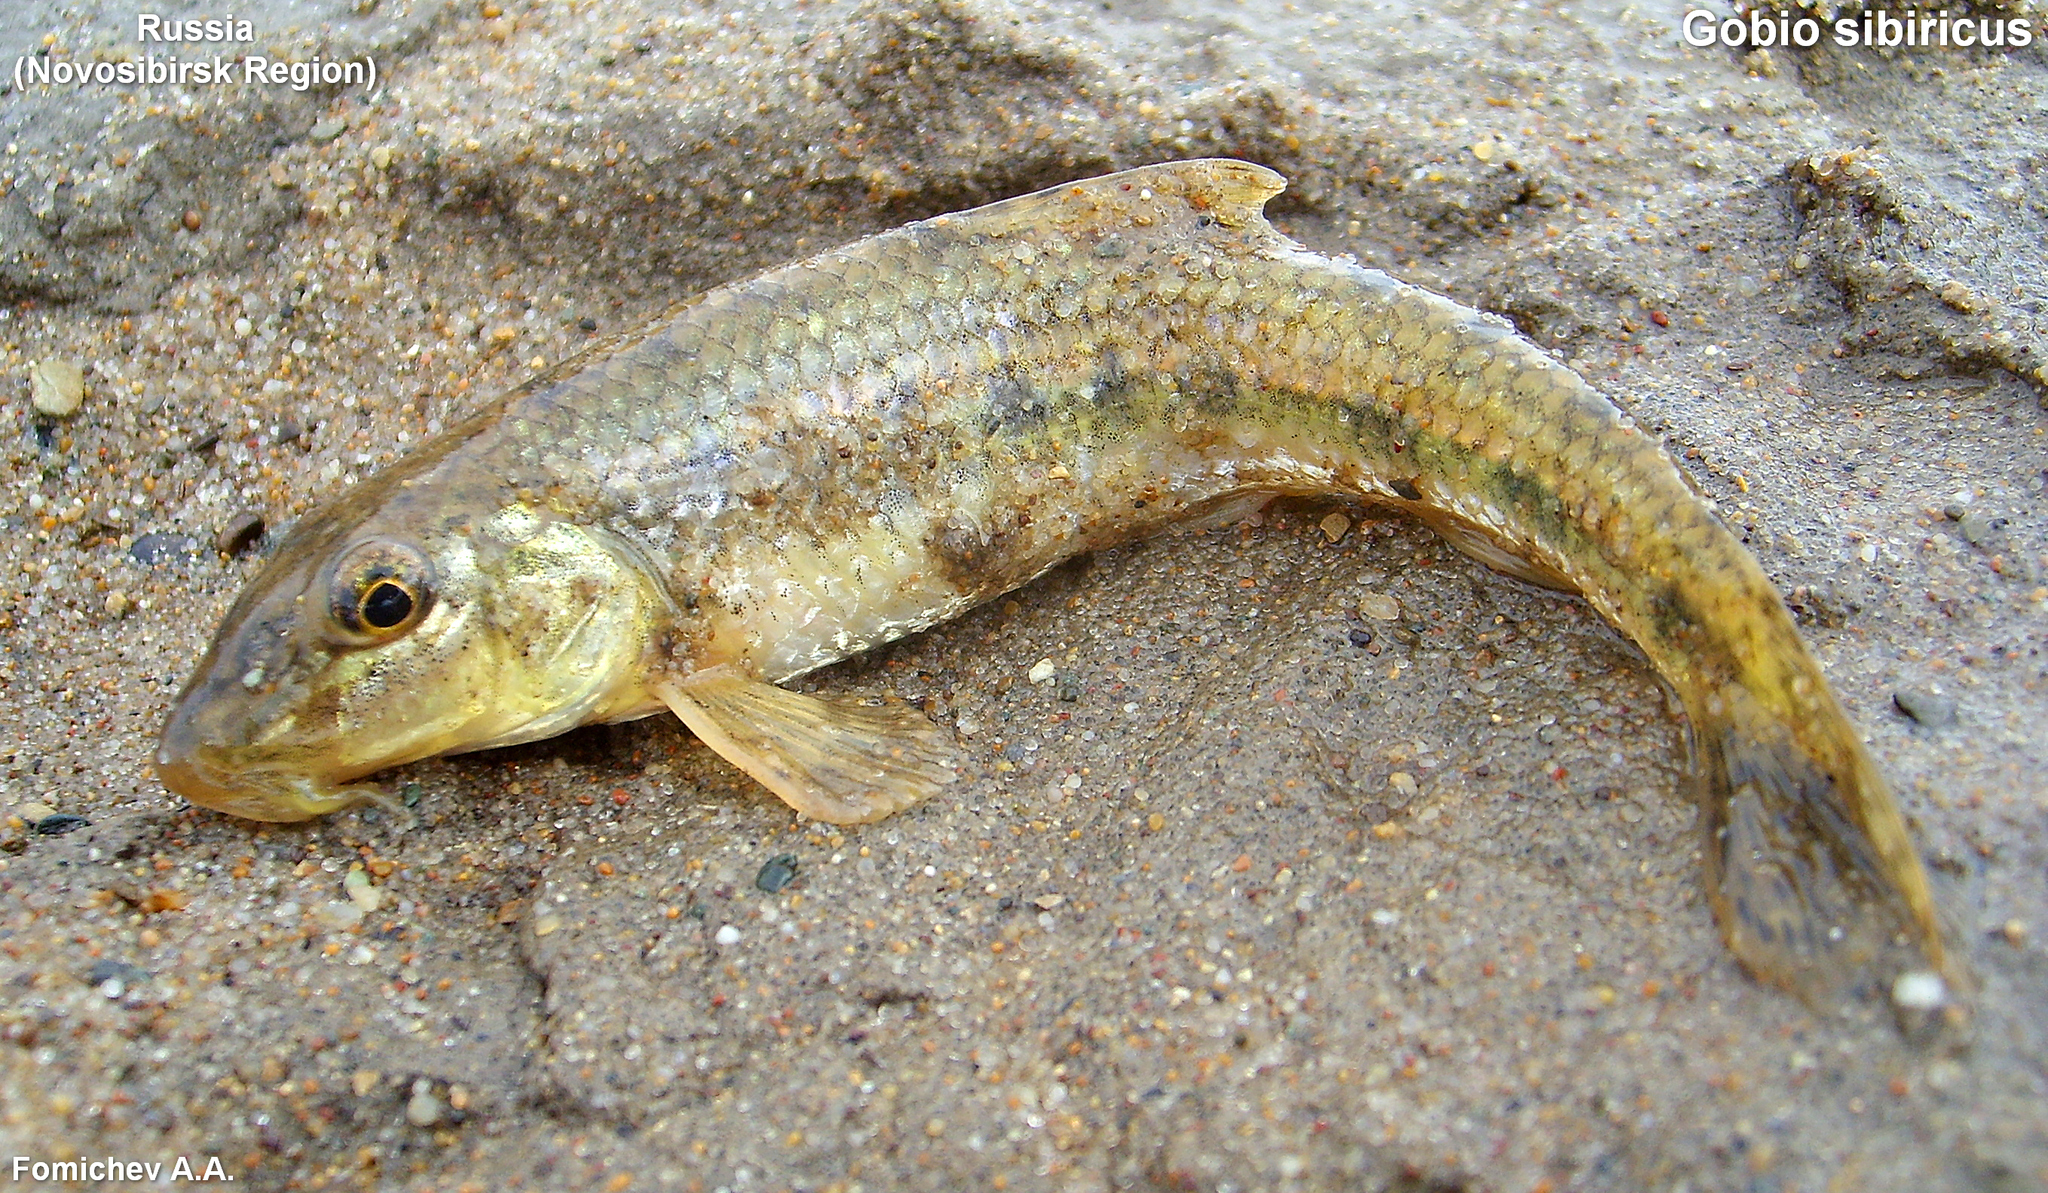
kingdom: Animalia
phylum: Chordata
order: Cypriniformes
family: Cyprinidae
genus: Gobio
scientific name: Gobio sibiricus
